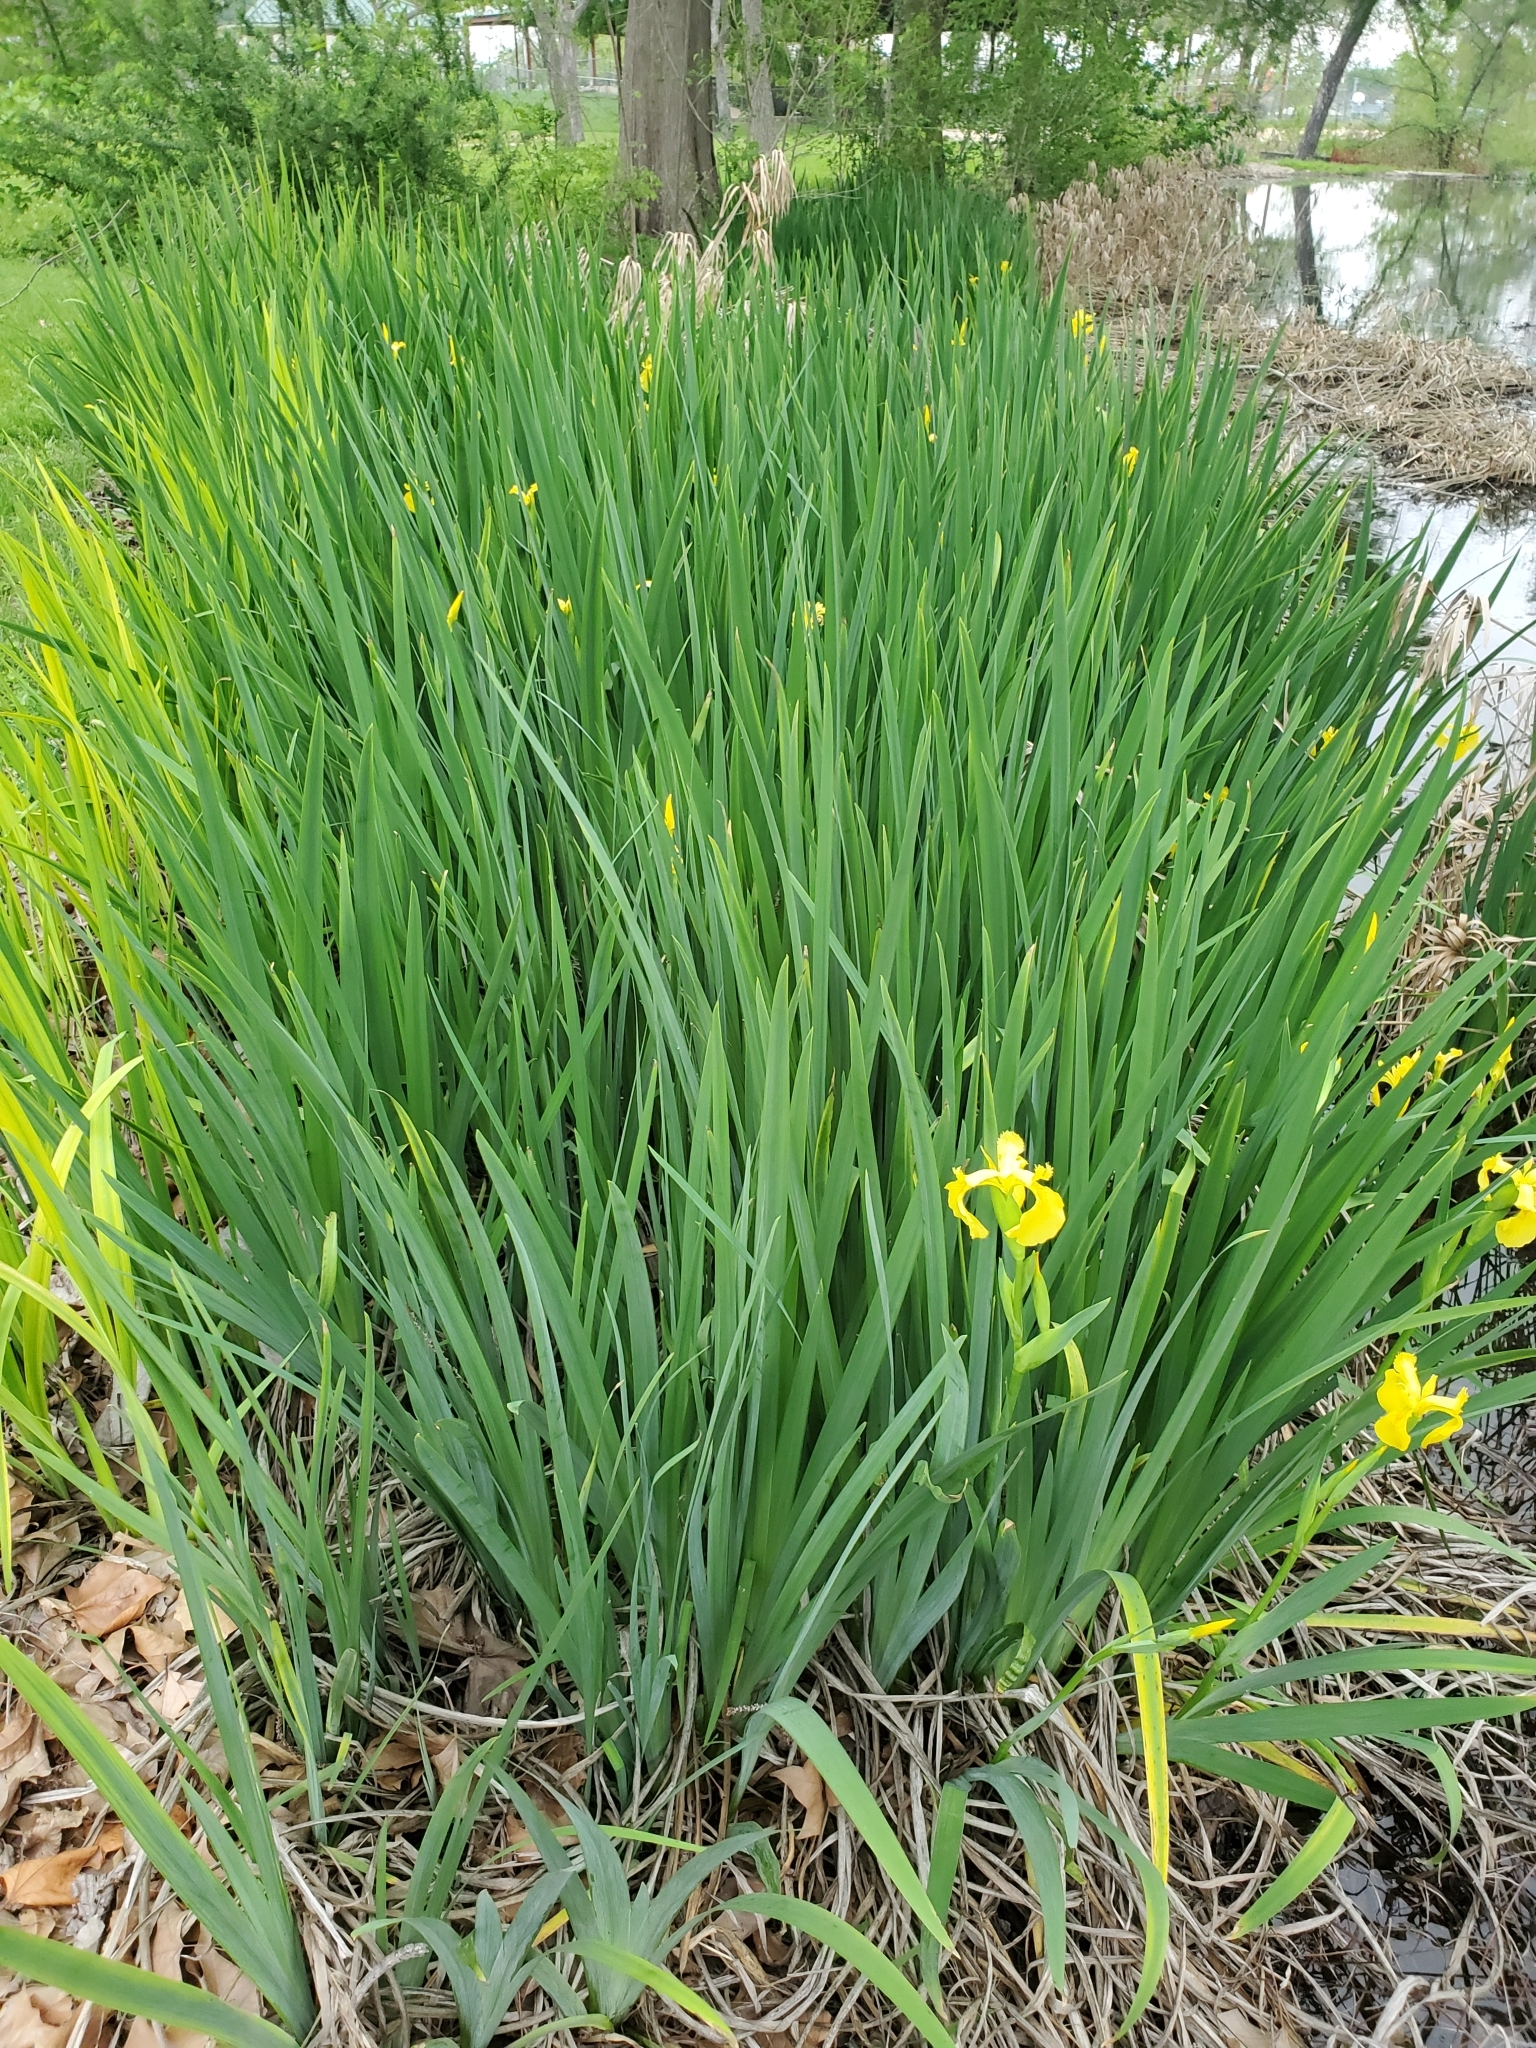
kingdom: Plantae
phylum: Tracheophyta
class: Liliopsida
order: Asparagales
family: Iridaceae
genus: Iris
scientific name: Iris pseudacorus
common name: Yellow flag
